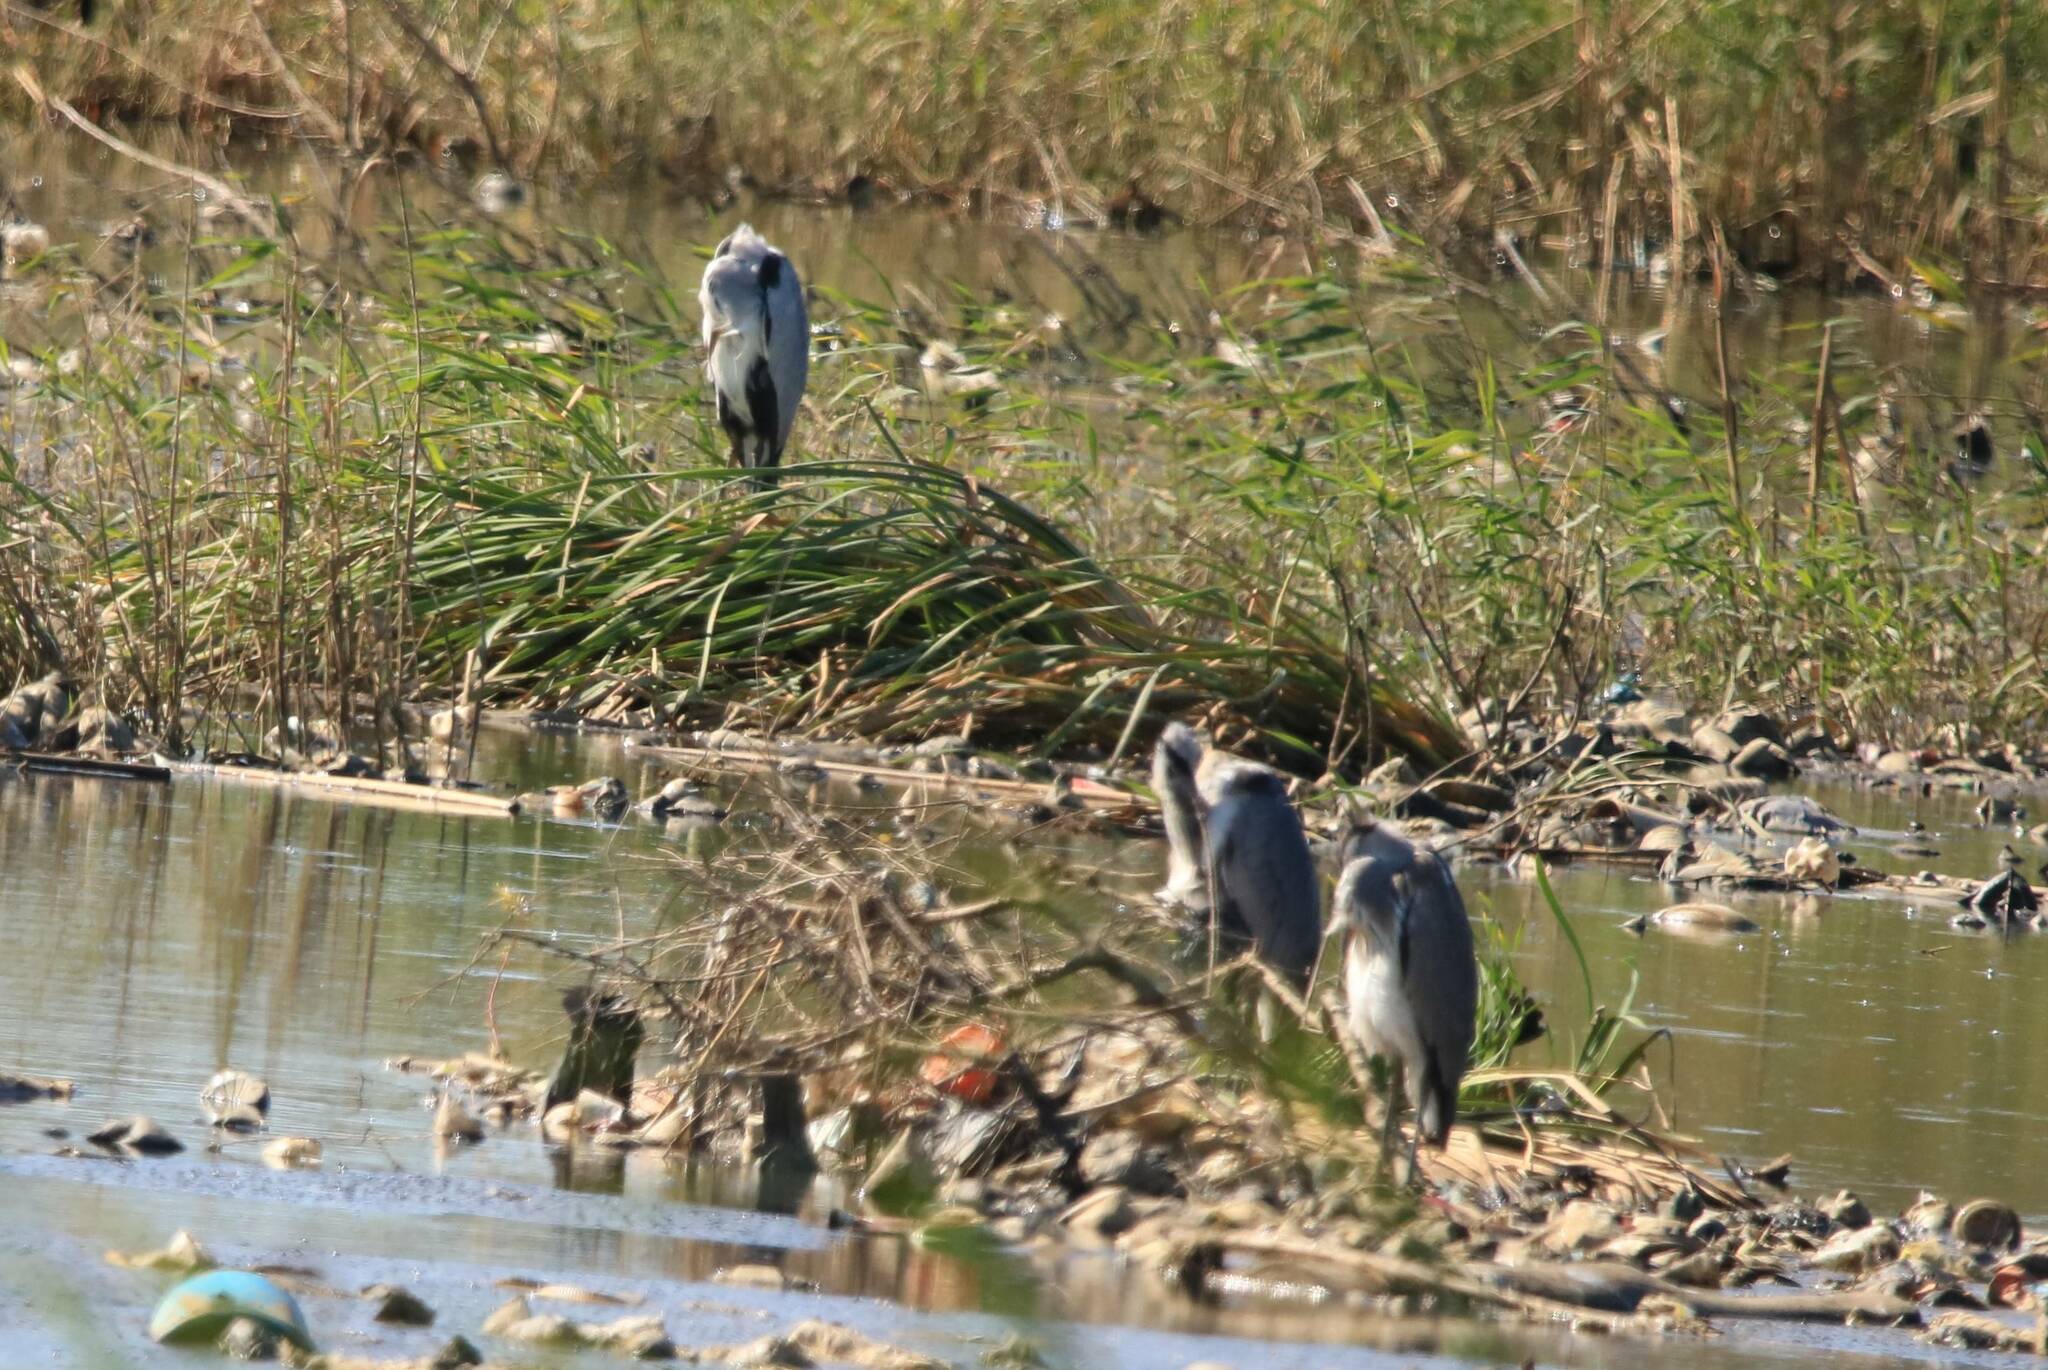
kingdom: Animalia
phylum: Chordata
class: Aves
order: Pelecaniformes
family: Ardeidae
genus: Ardea
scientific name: Ardea cinerea
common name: Grey heron
